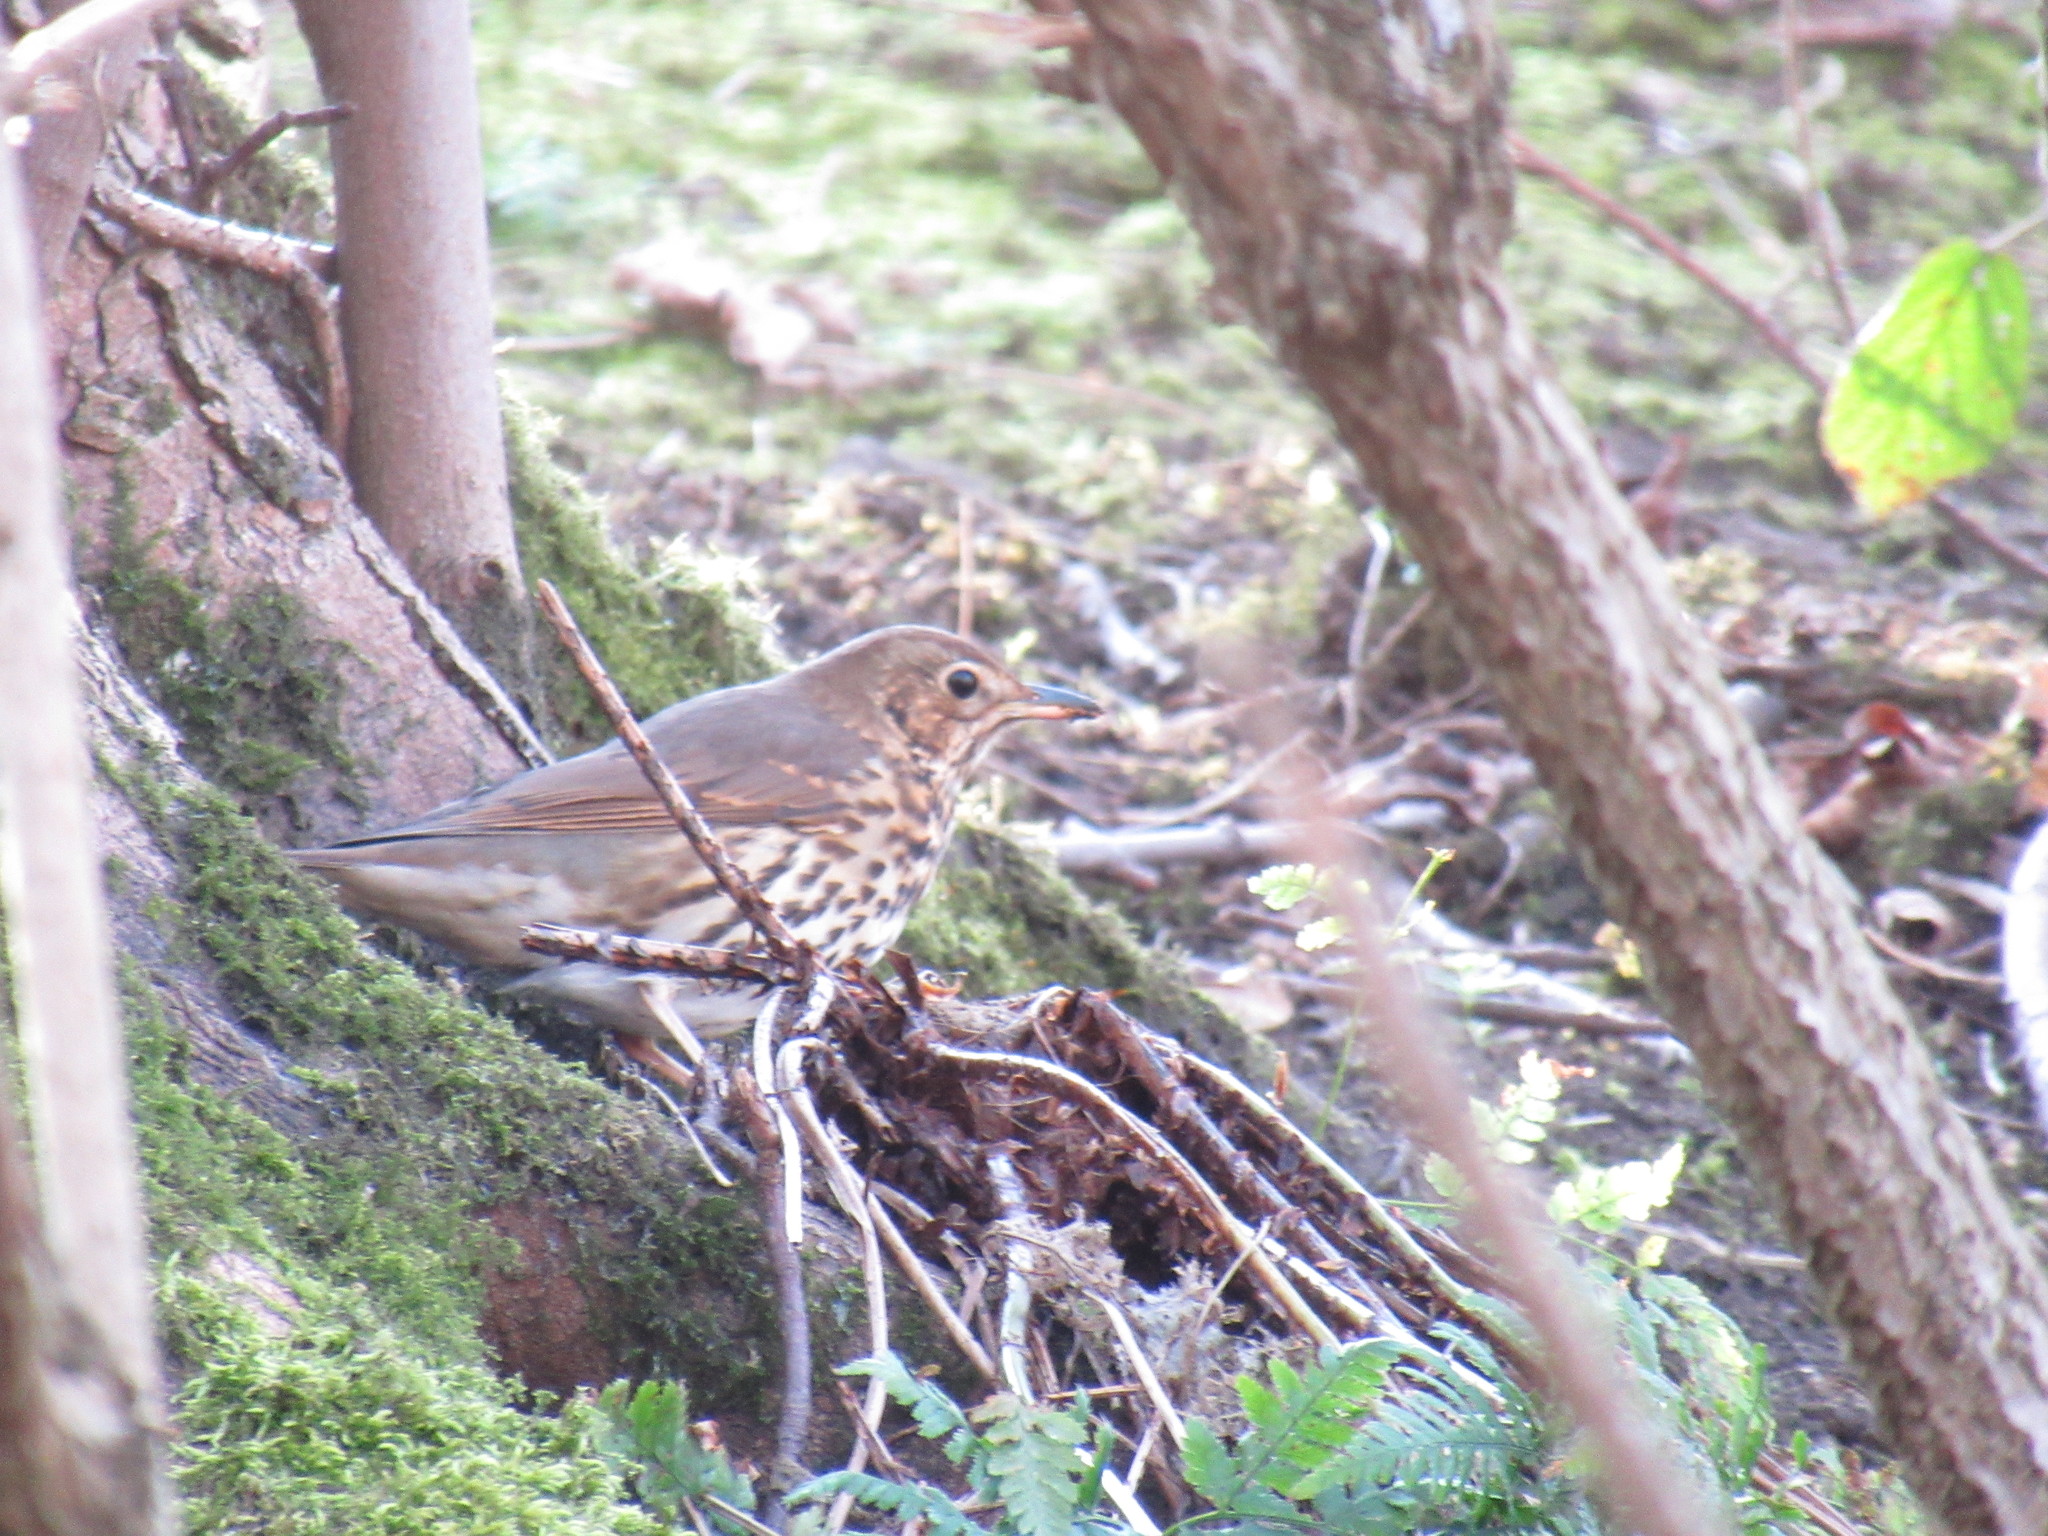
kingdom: Animalia
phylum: Chordata
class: Aves
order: Passeriformes
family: Turdidae
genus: Turdus
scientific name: Turdus philomelos
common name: Song thrush
